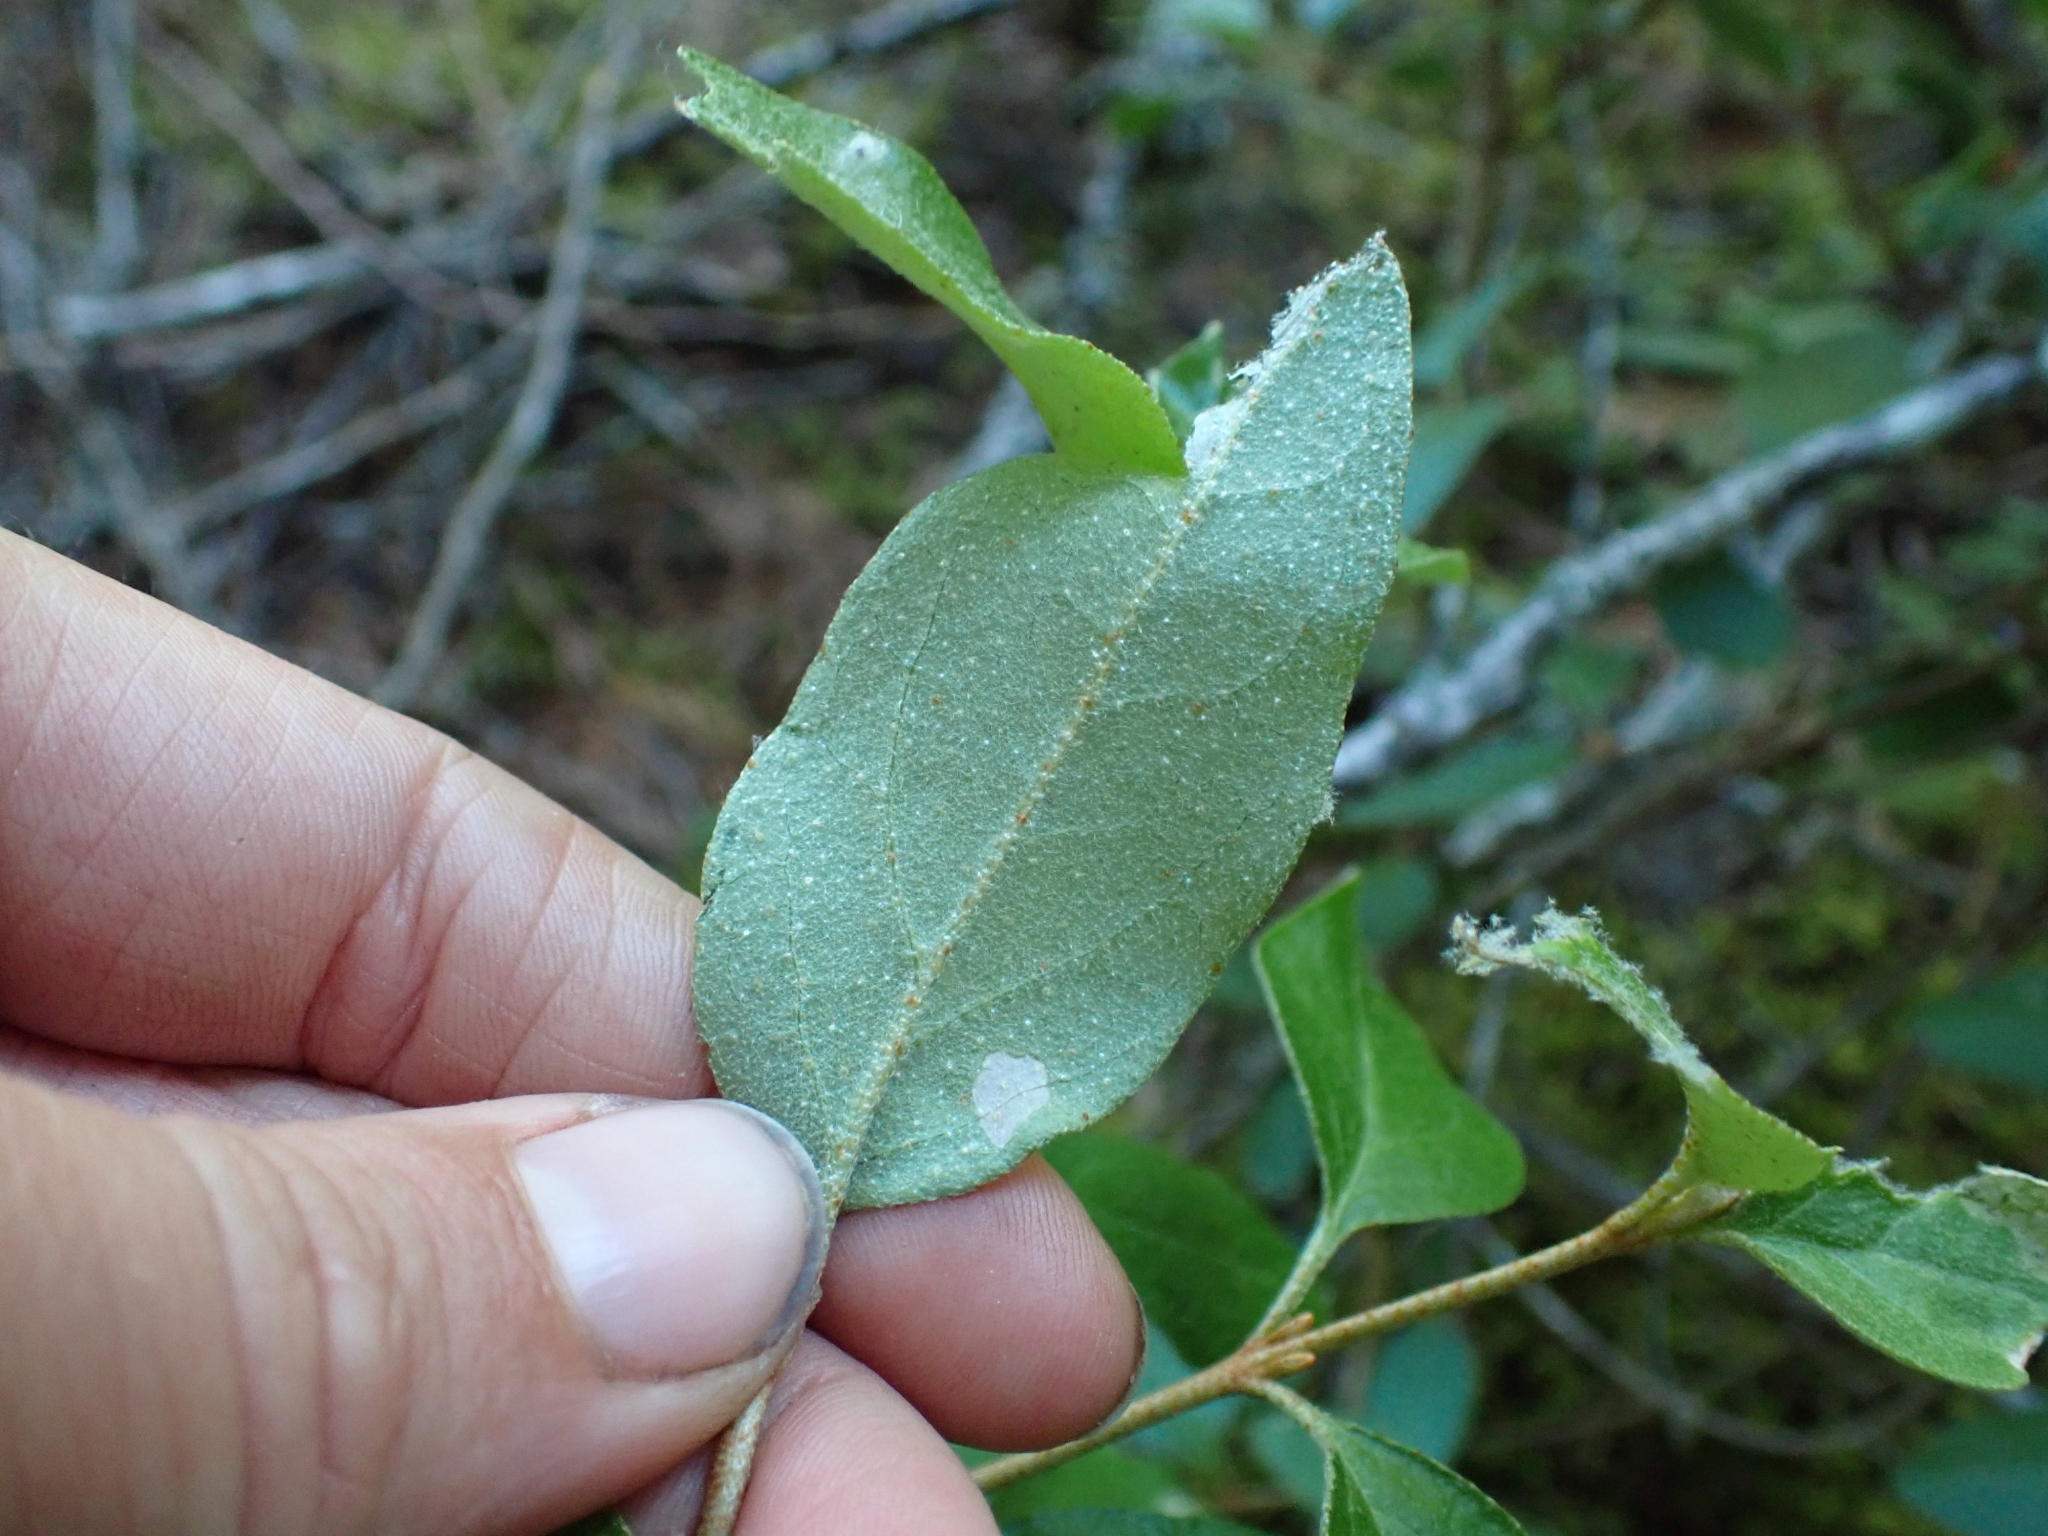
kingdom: Plantae
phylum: Tracheophyta
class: Magnoliopsida
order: Rosales
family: Elaeagnaceae
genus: Shepherdia
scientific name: Shepherdia canadensis
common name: Soapberry
